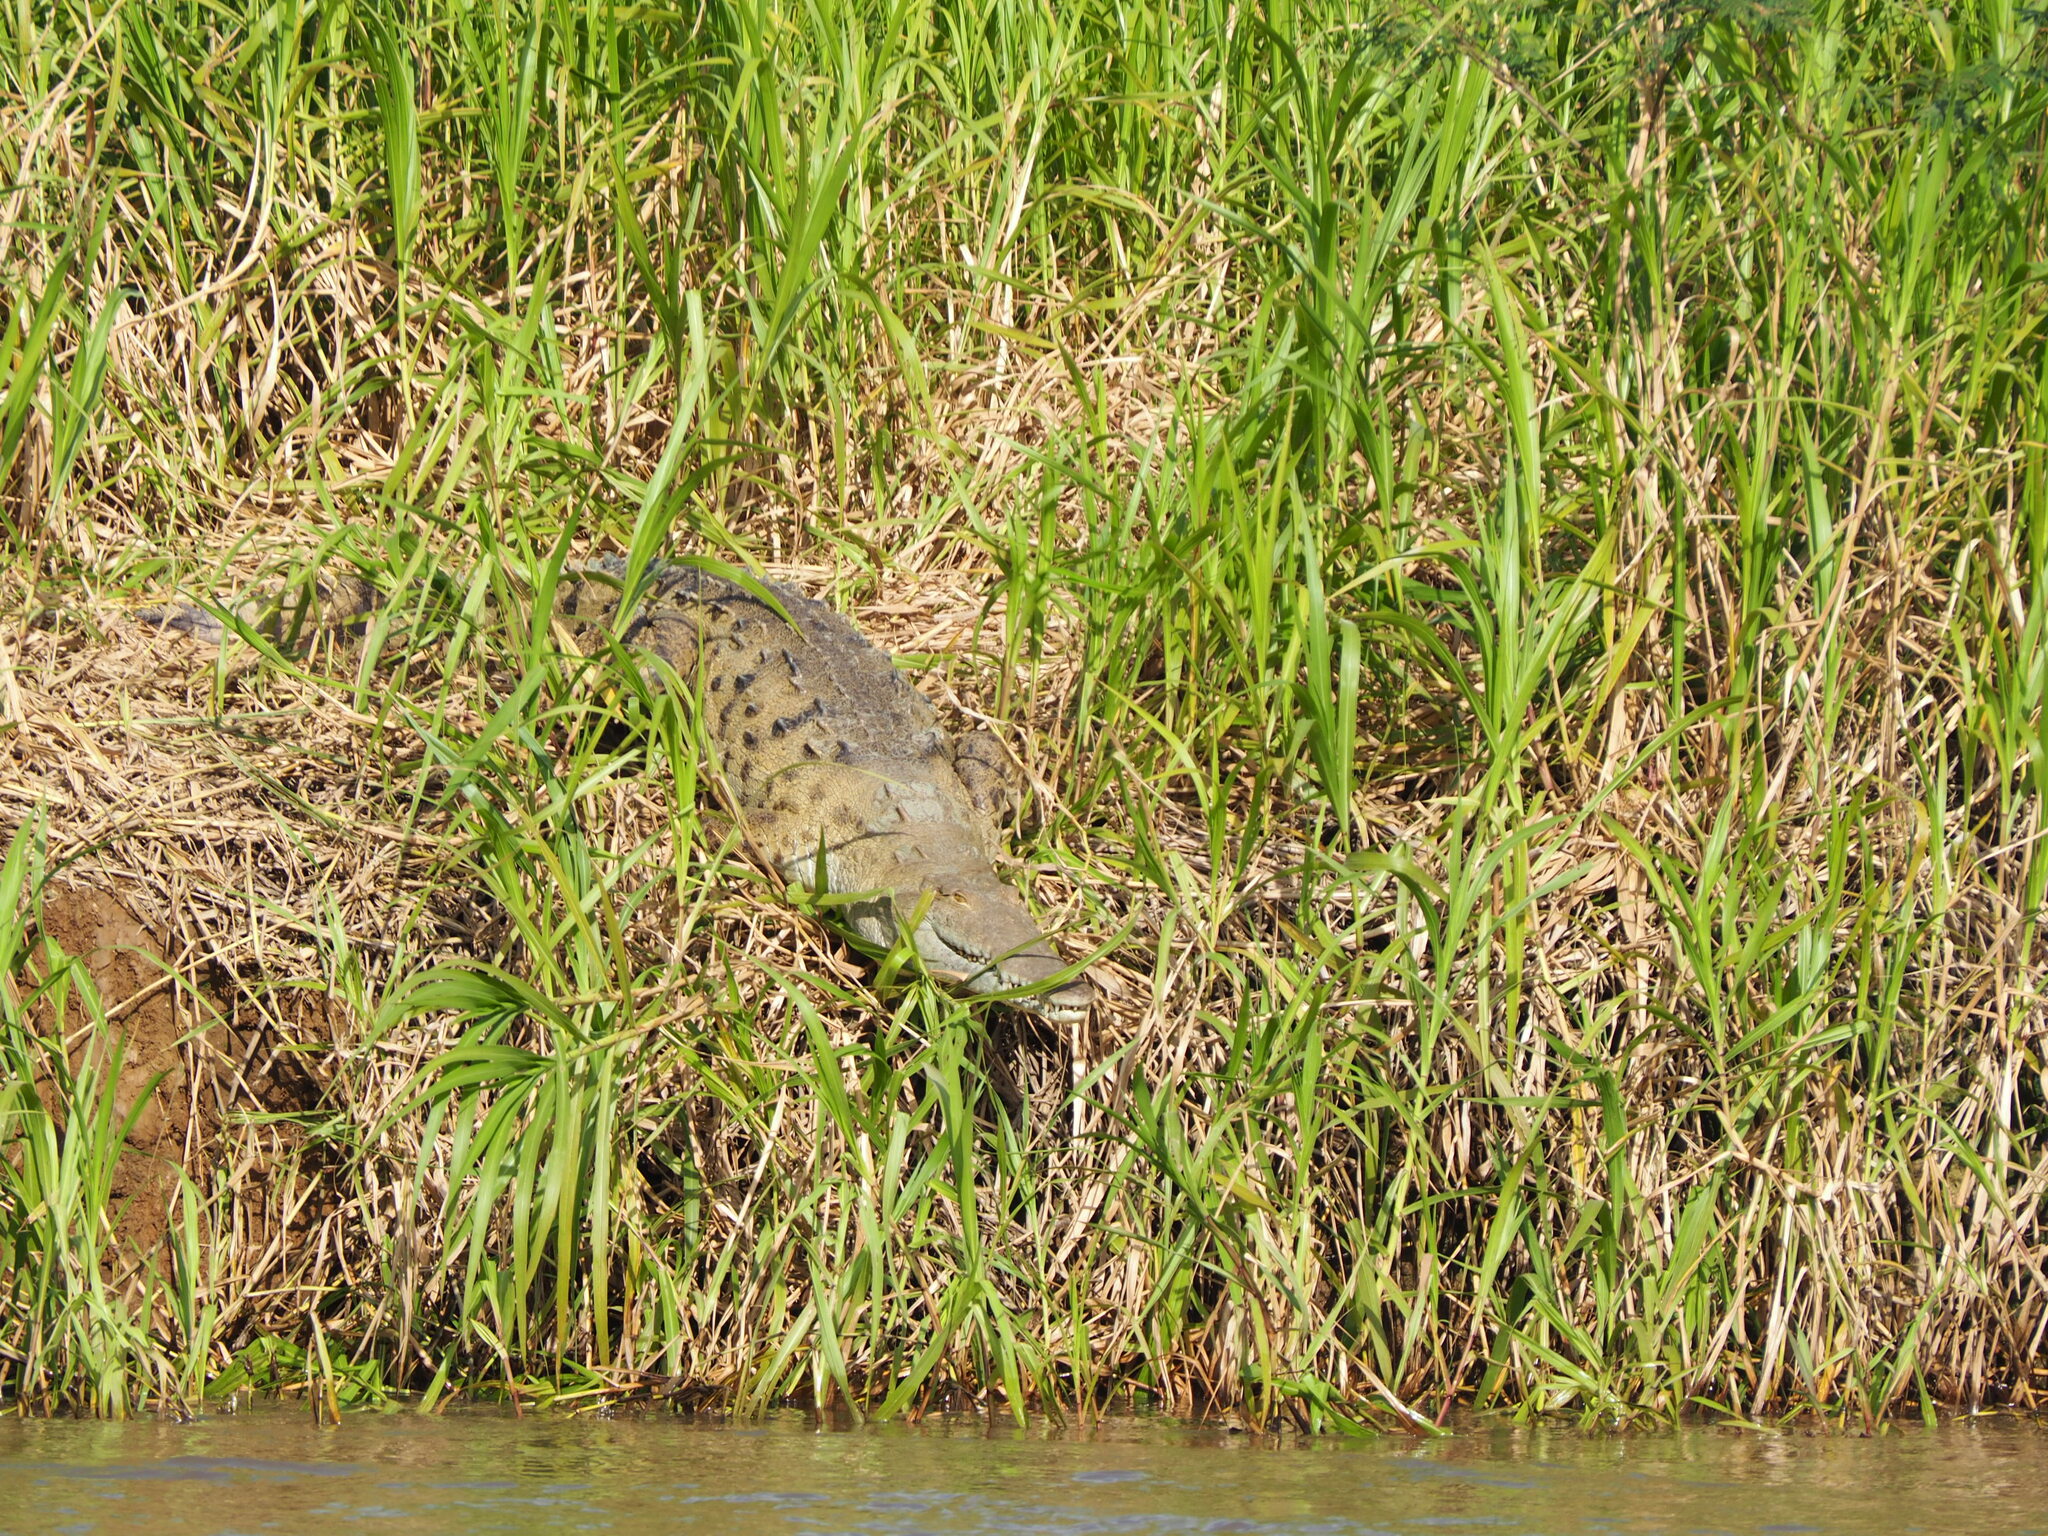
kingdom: Animalia
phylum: Chordata
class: Crocodylia
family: Crocodylidae
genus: Crocodylus
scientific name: Crocodylus acutus
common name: American crocodile
